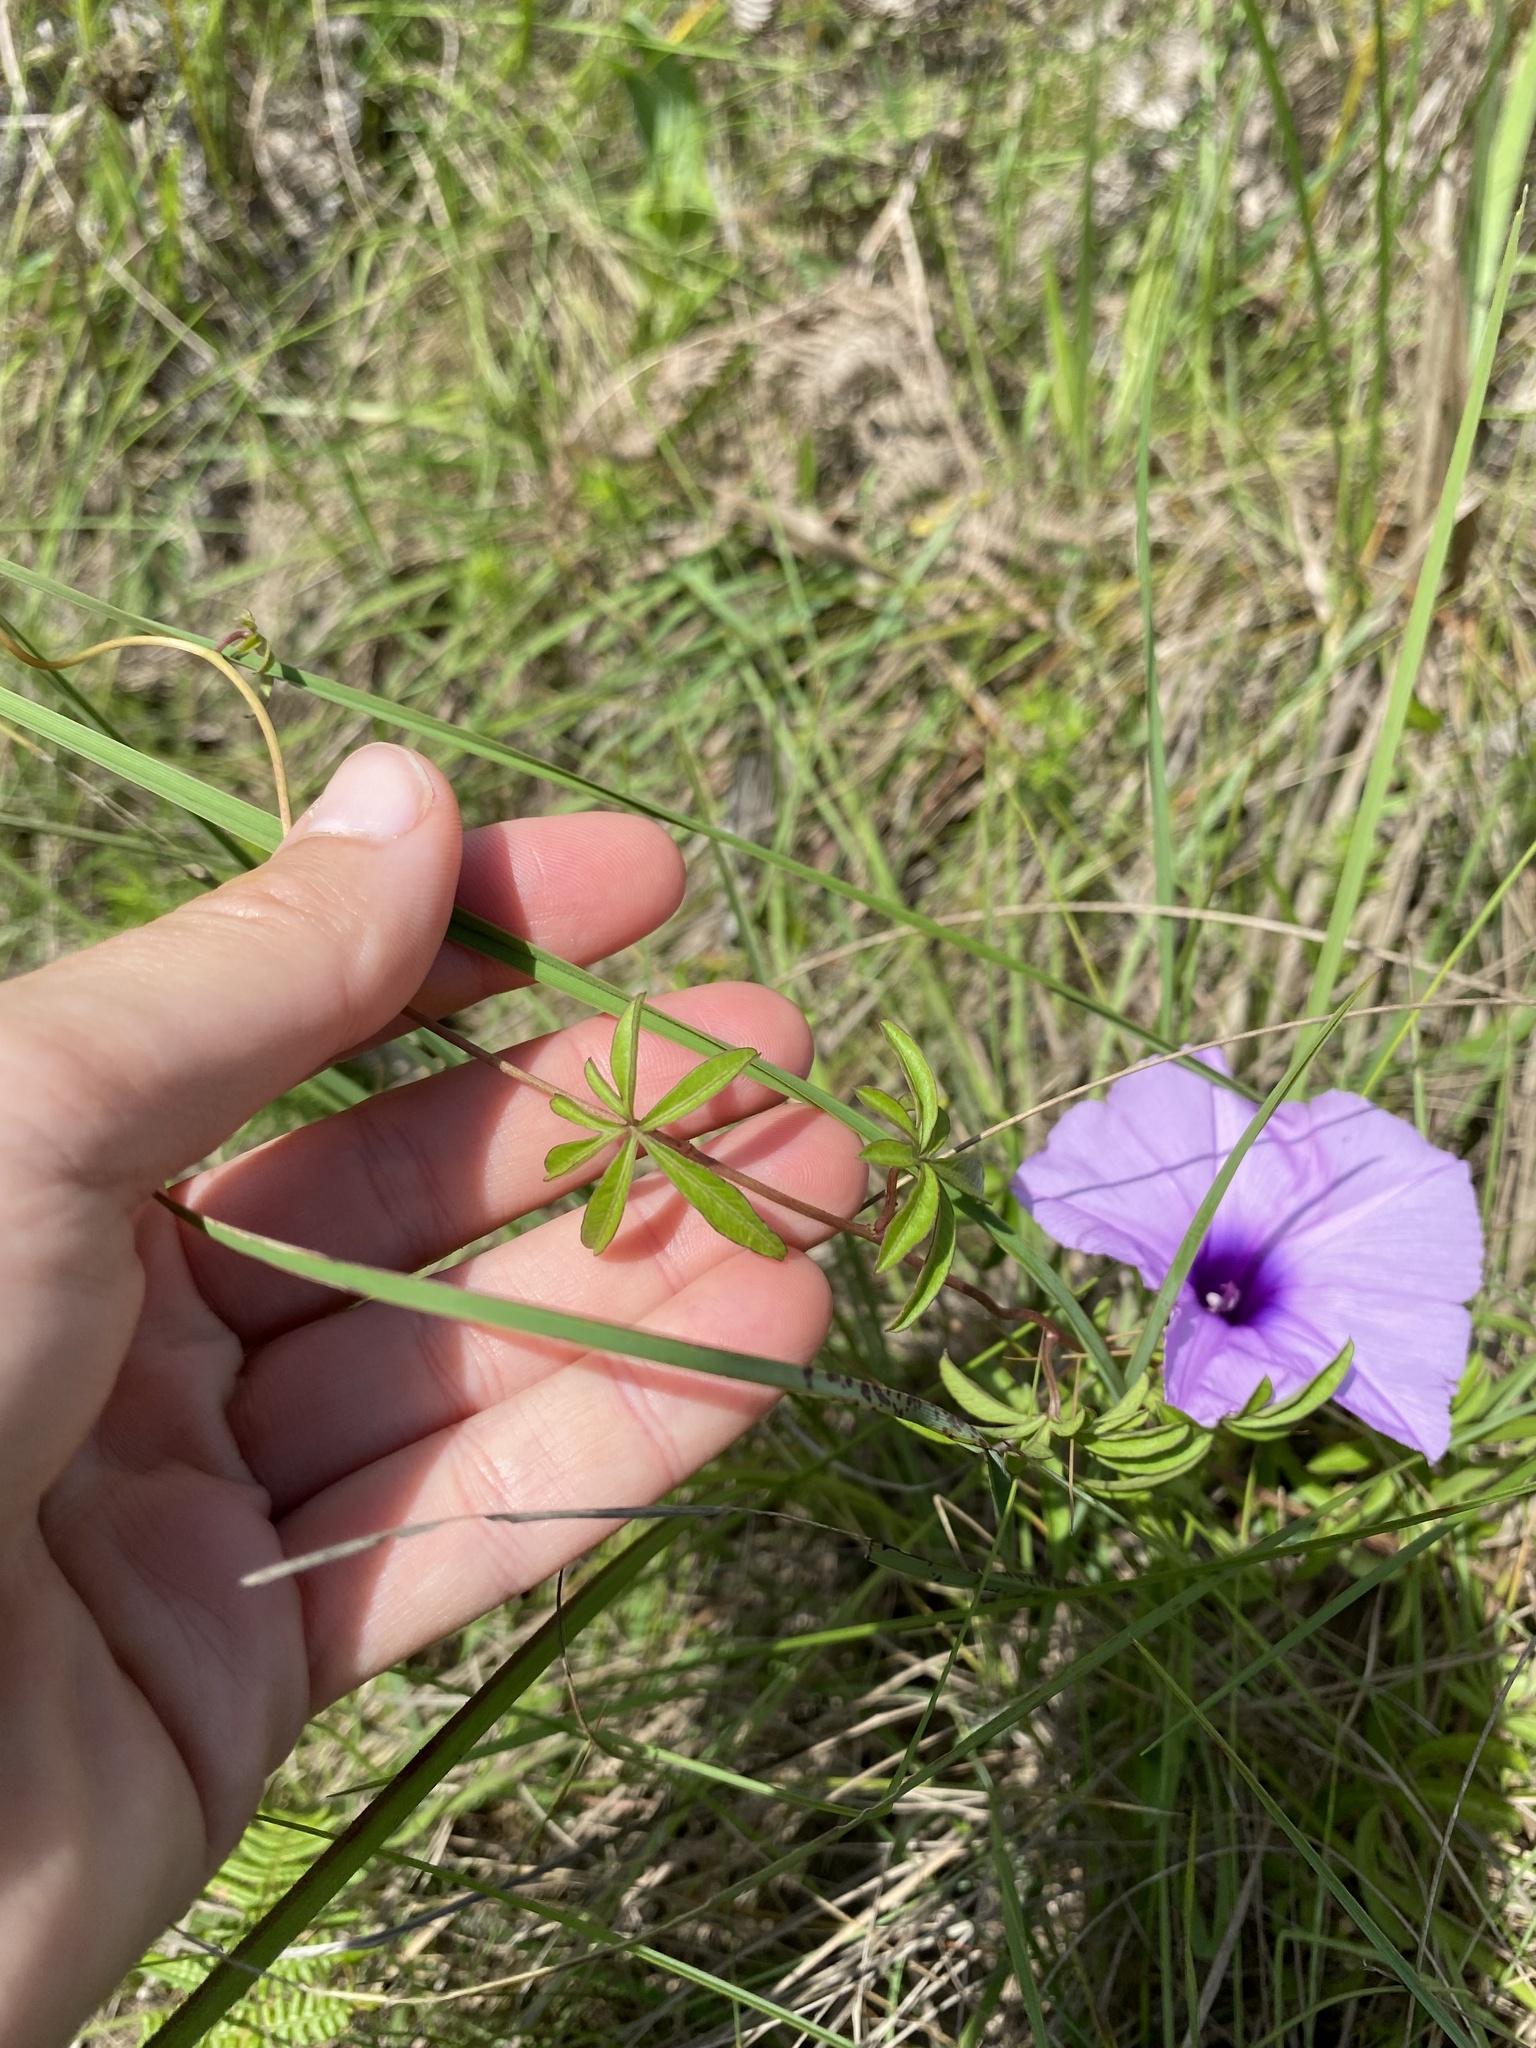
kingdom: Plantae
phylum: Tracheophyta
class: Magnoliopsida
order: Solanales
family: Convolvulaceae
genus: Ipomoea
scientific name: Ipomoea cairica
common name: Mile a minute vine
